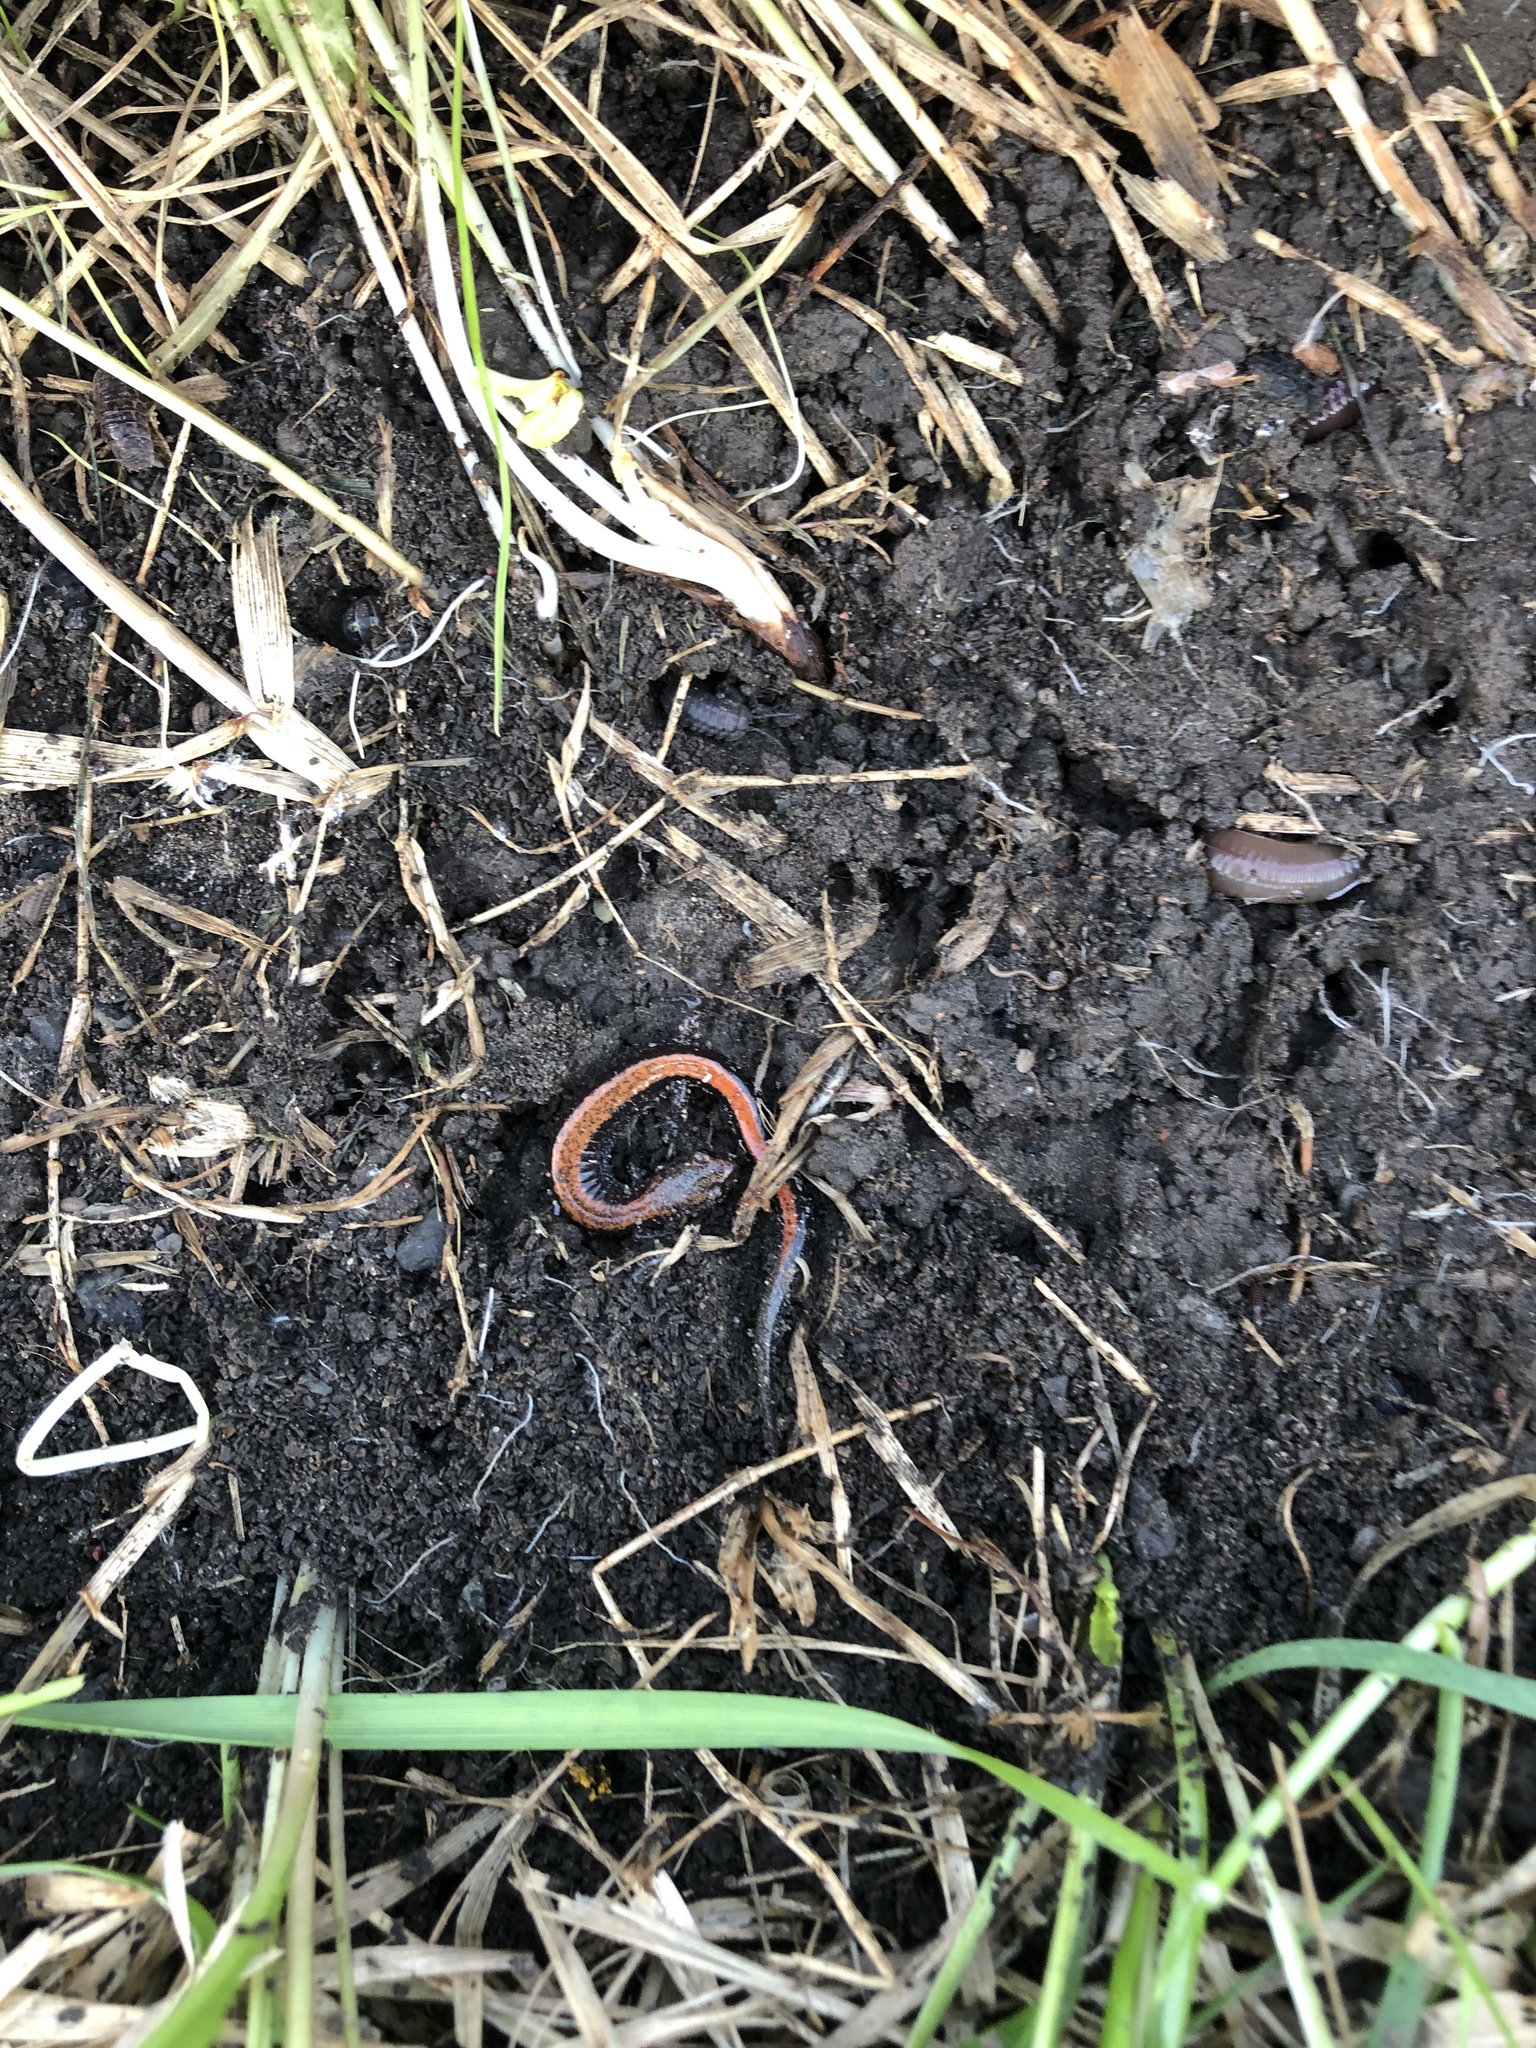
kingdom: Animalia
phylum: Chordata
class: Amphibia
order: Caudata
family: Plethodontidae
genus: Plethodon
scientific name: Plethodon cinereus
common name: Redback salamander
